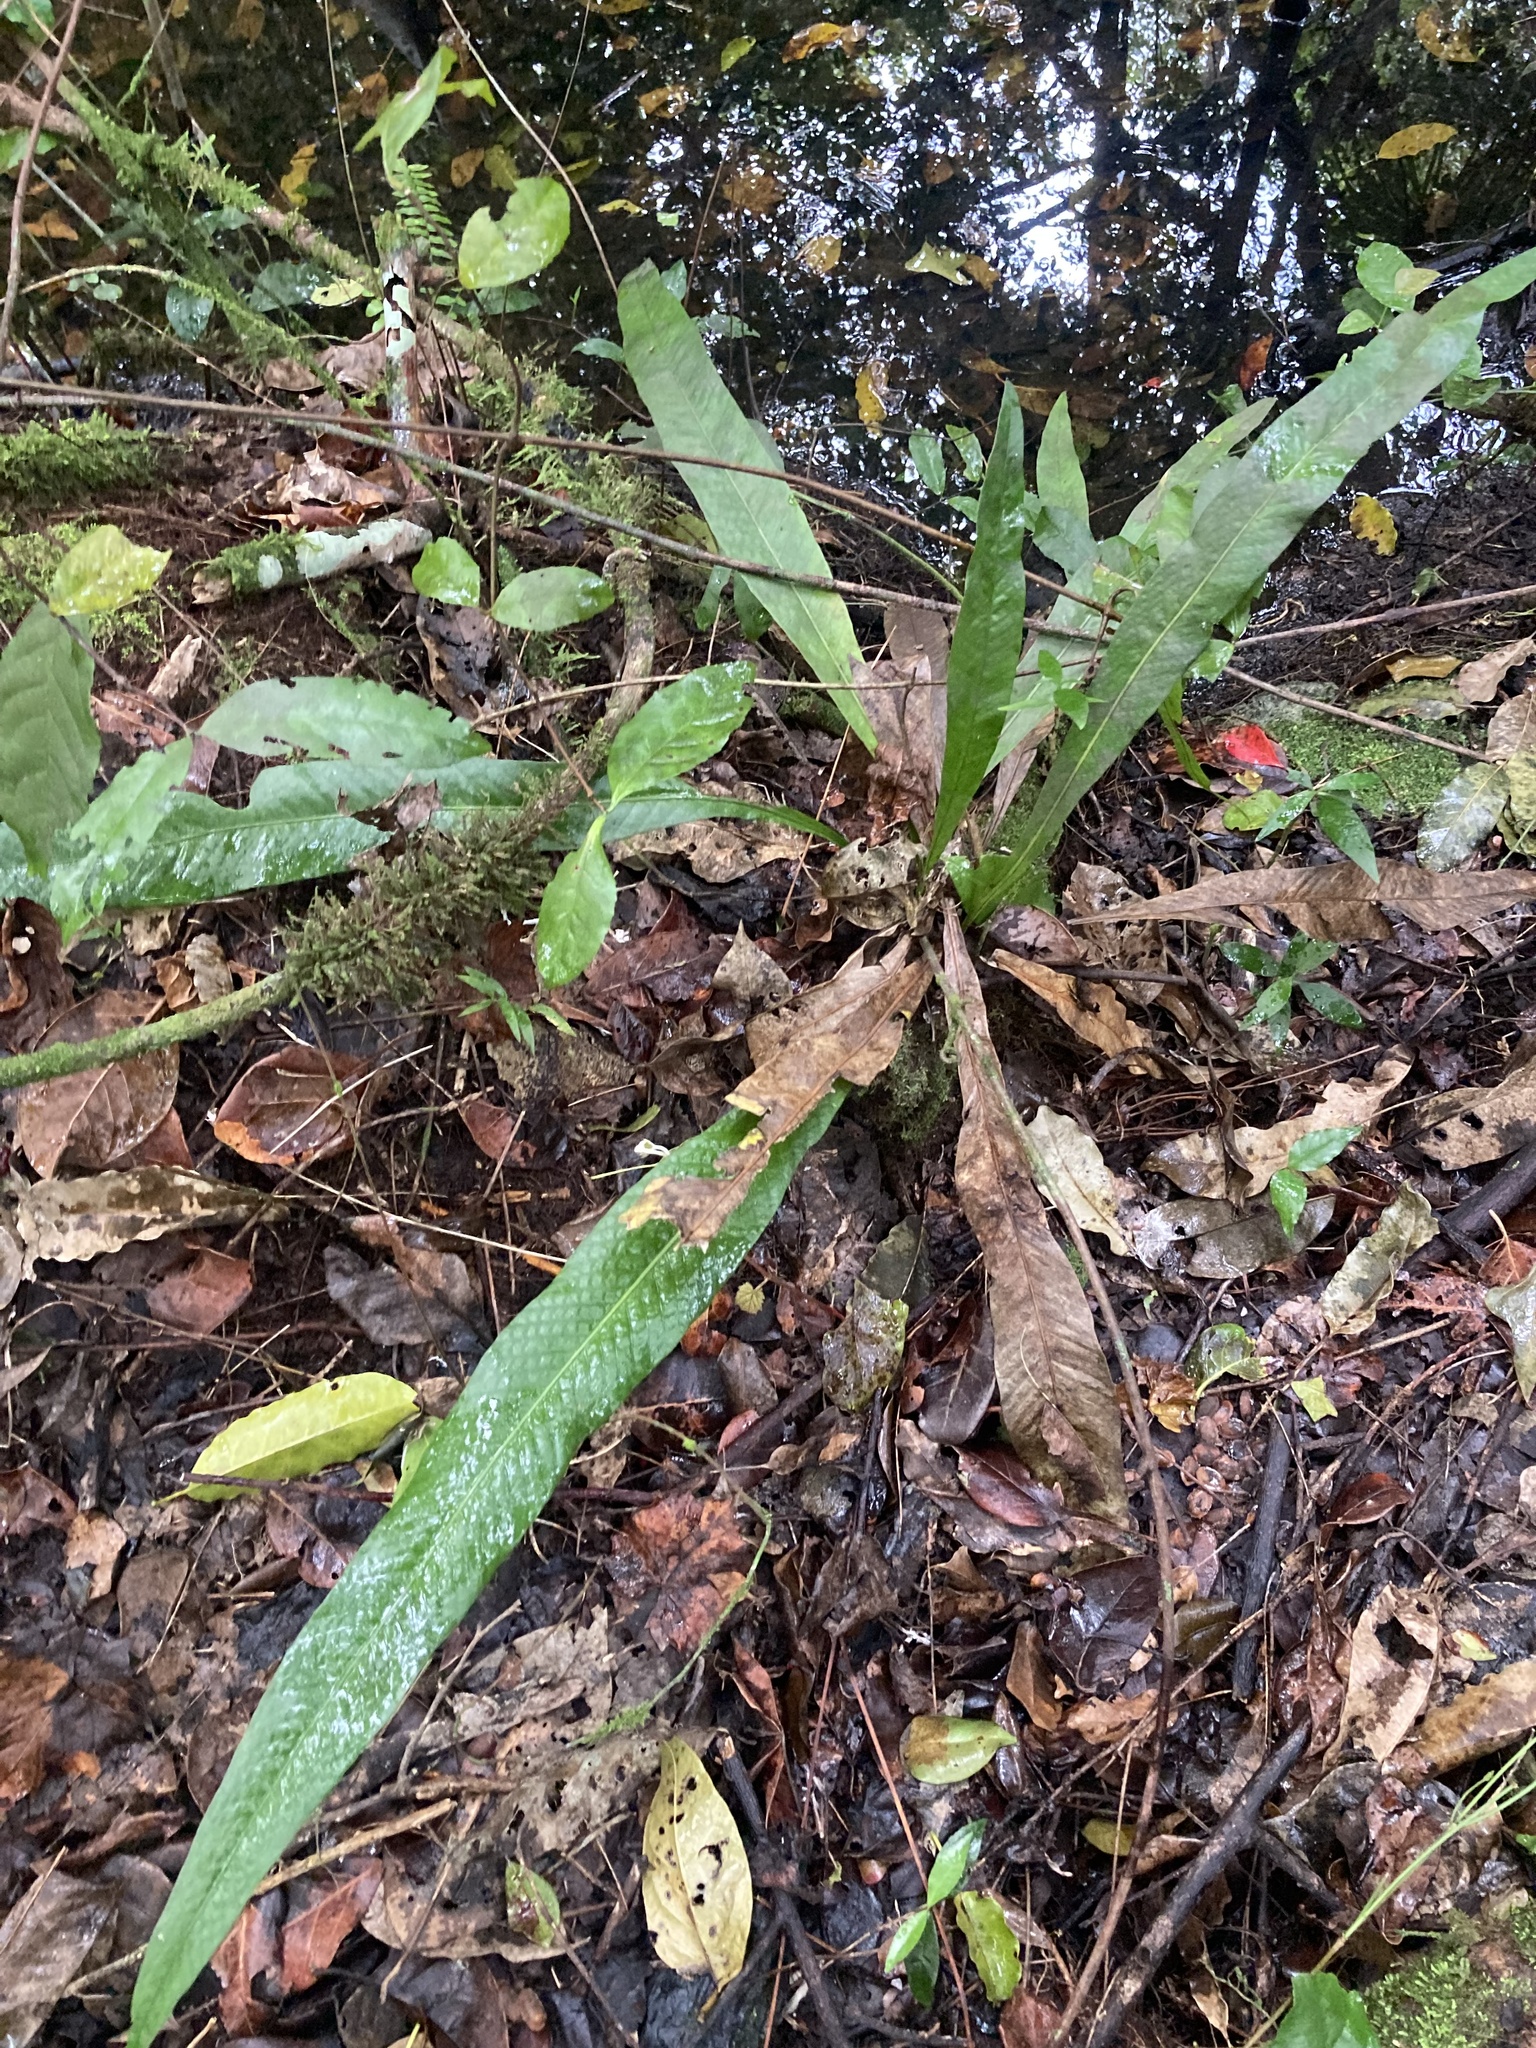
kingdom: Plantae
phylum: Tracheophyta
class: Polypodiopsida
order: Polypodiales
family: Polypodiaceae
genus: Campyloneurum
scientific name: Campyloneurum phyllitidis
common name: Cow-tongue fern
